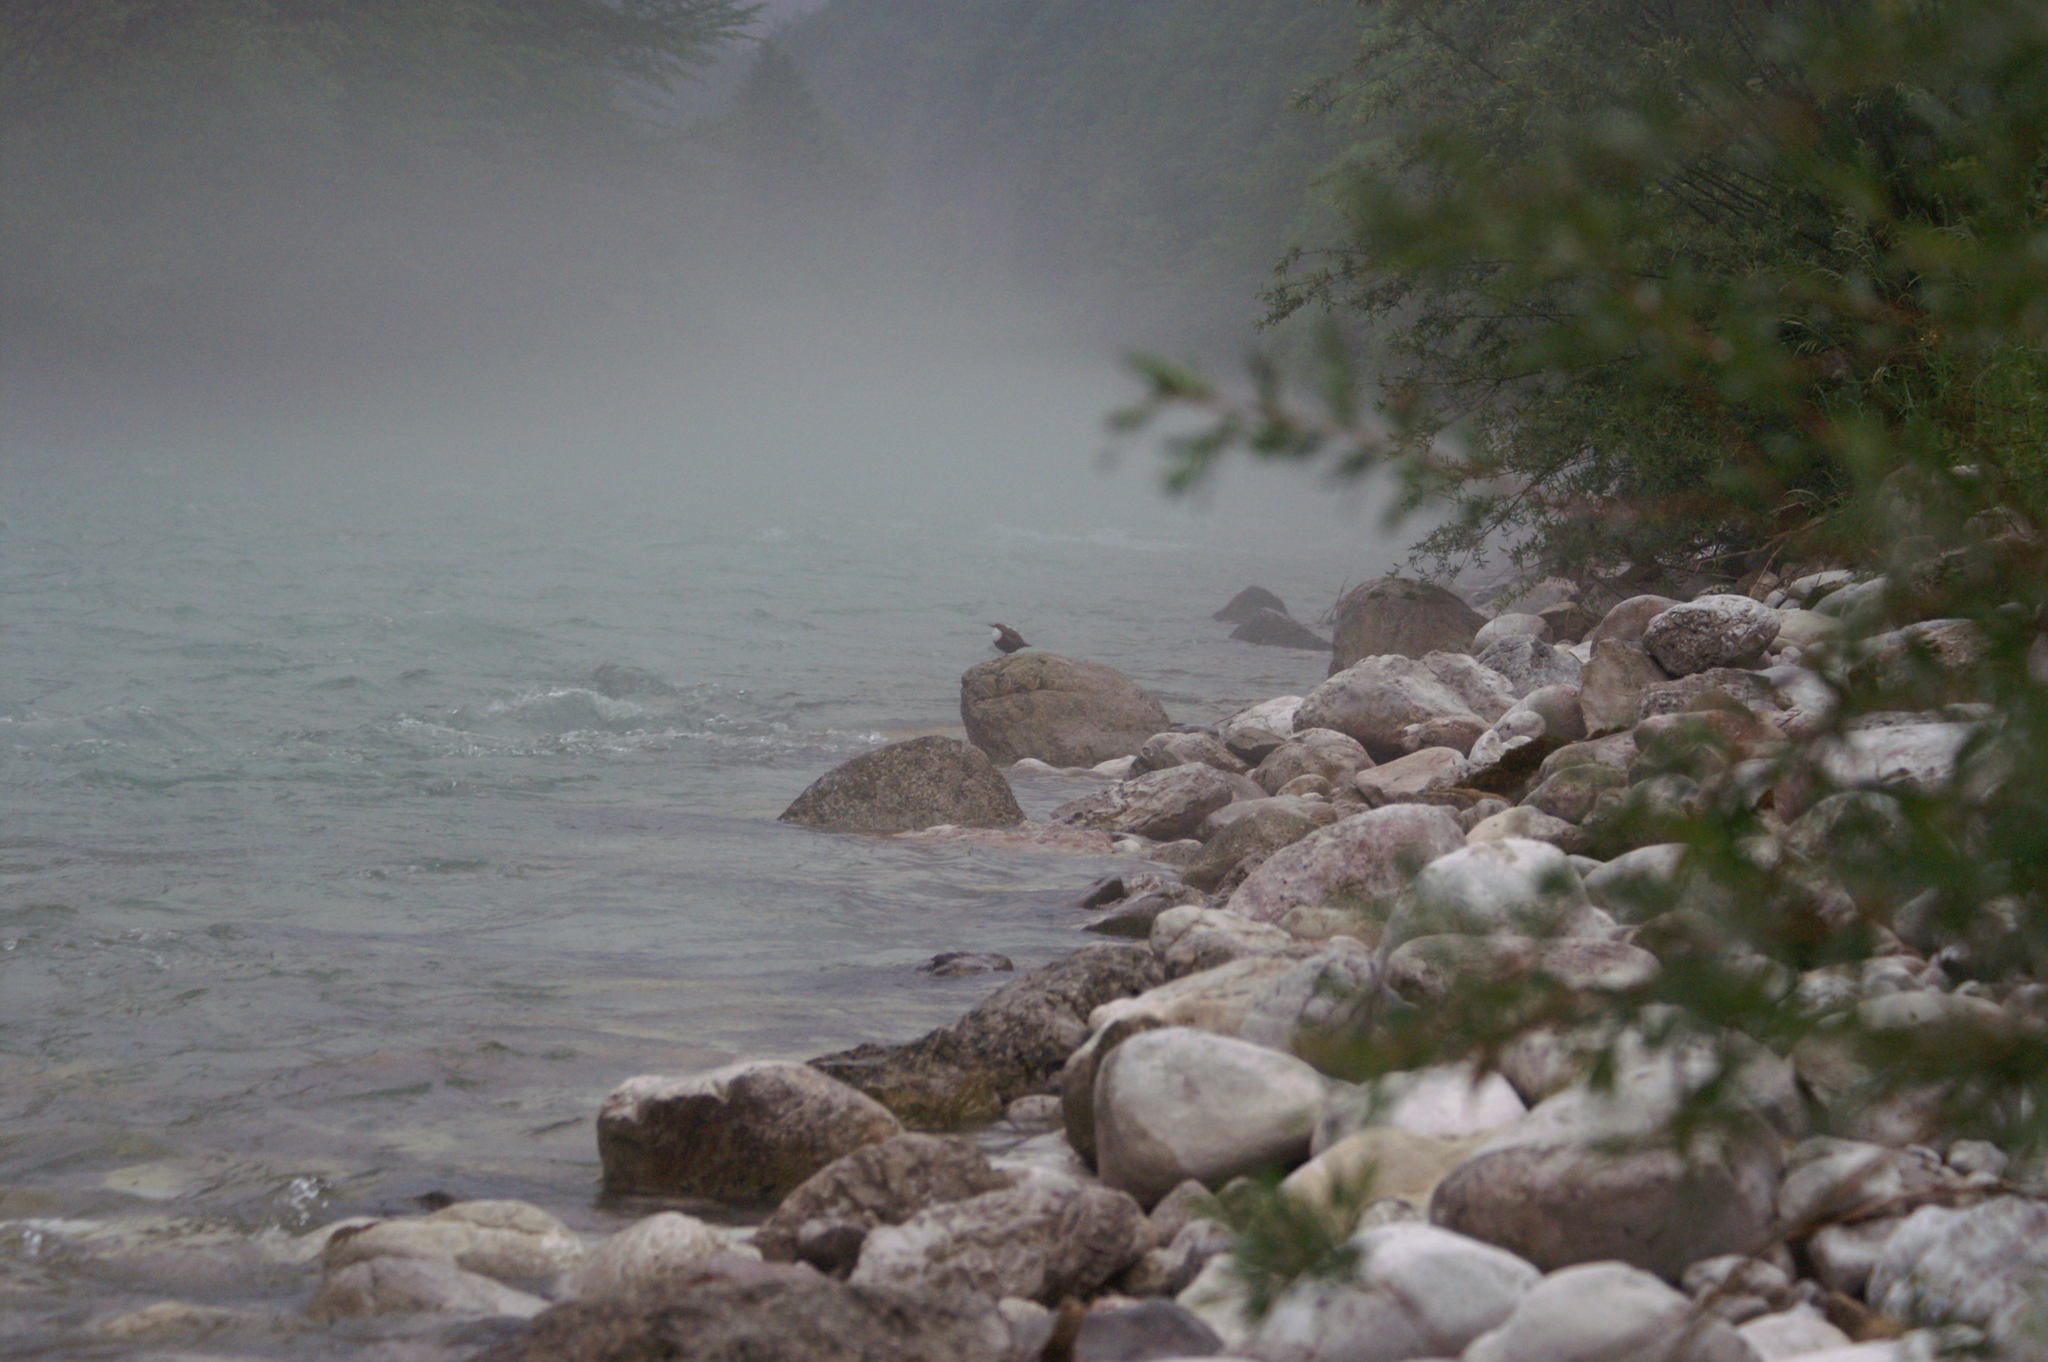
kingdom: Animalia
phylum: Chordata
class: Aves
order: Passeriformes
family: Cinclidae
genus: Cinclus
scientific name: Cinclus cinclus
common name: White-throated dipper
